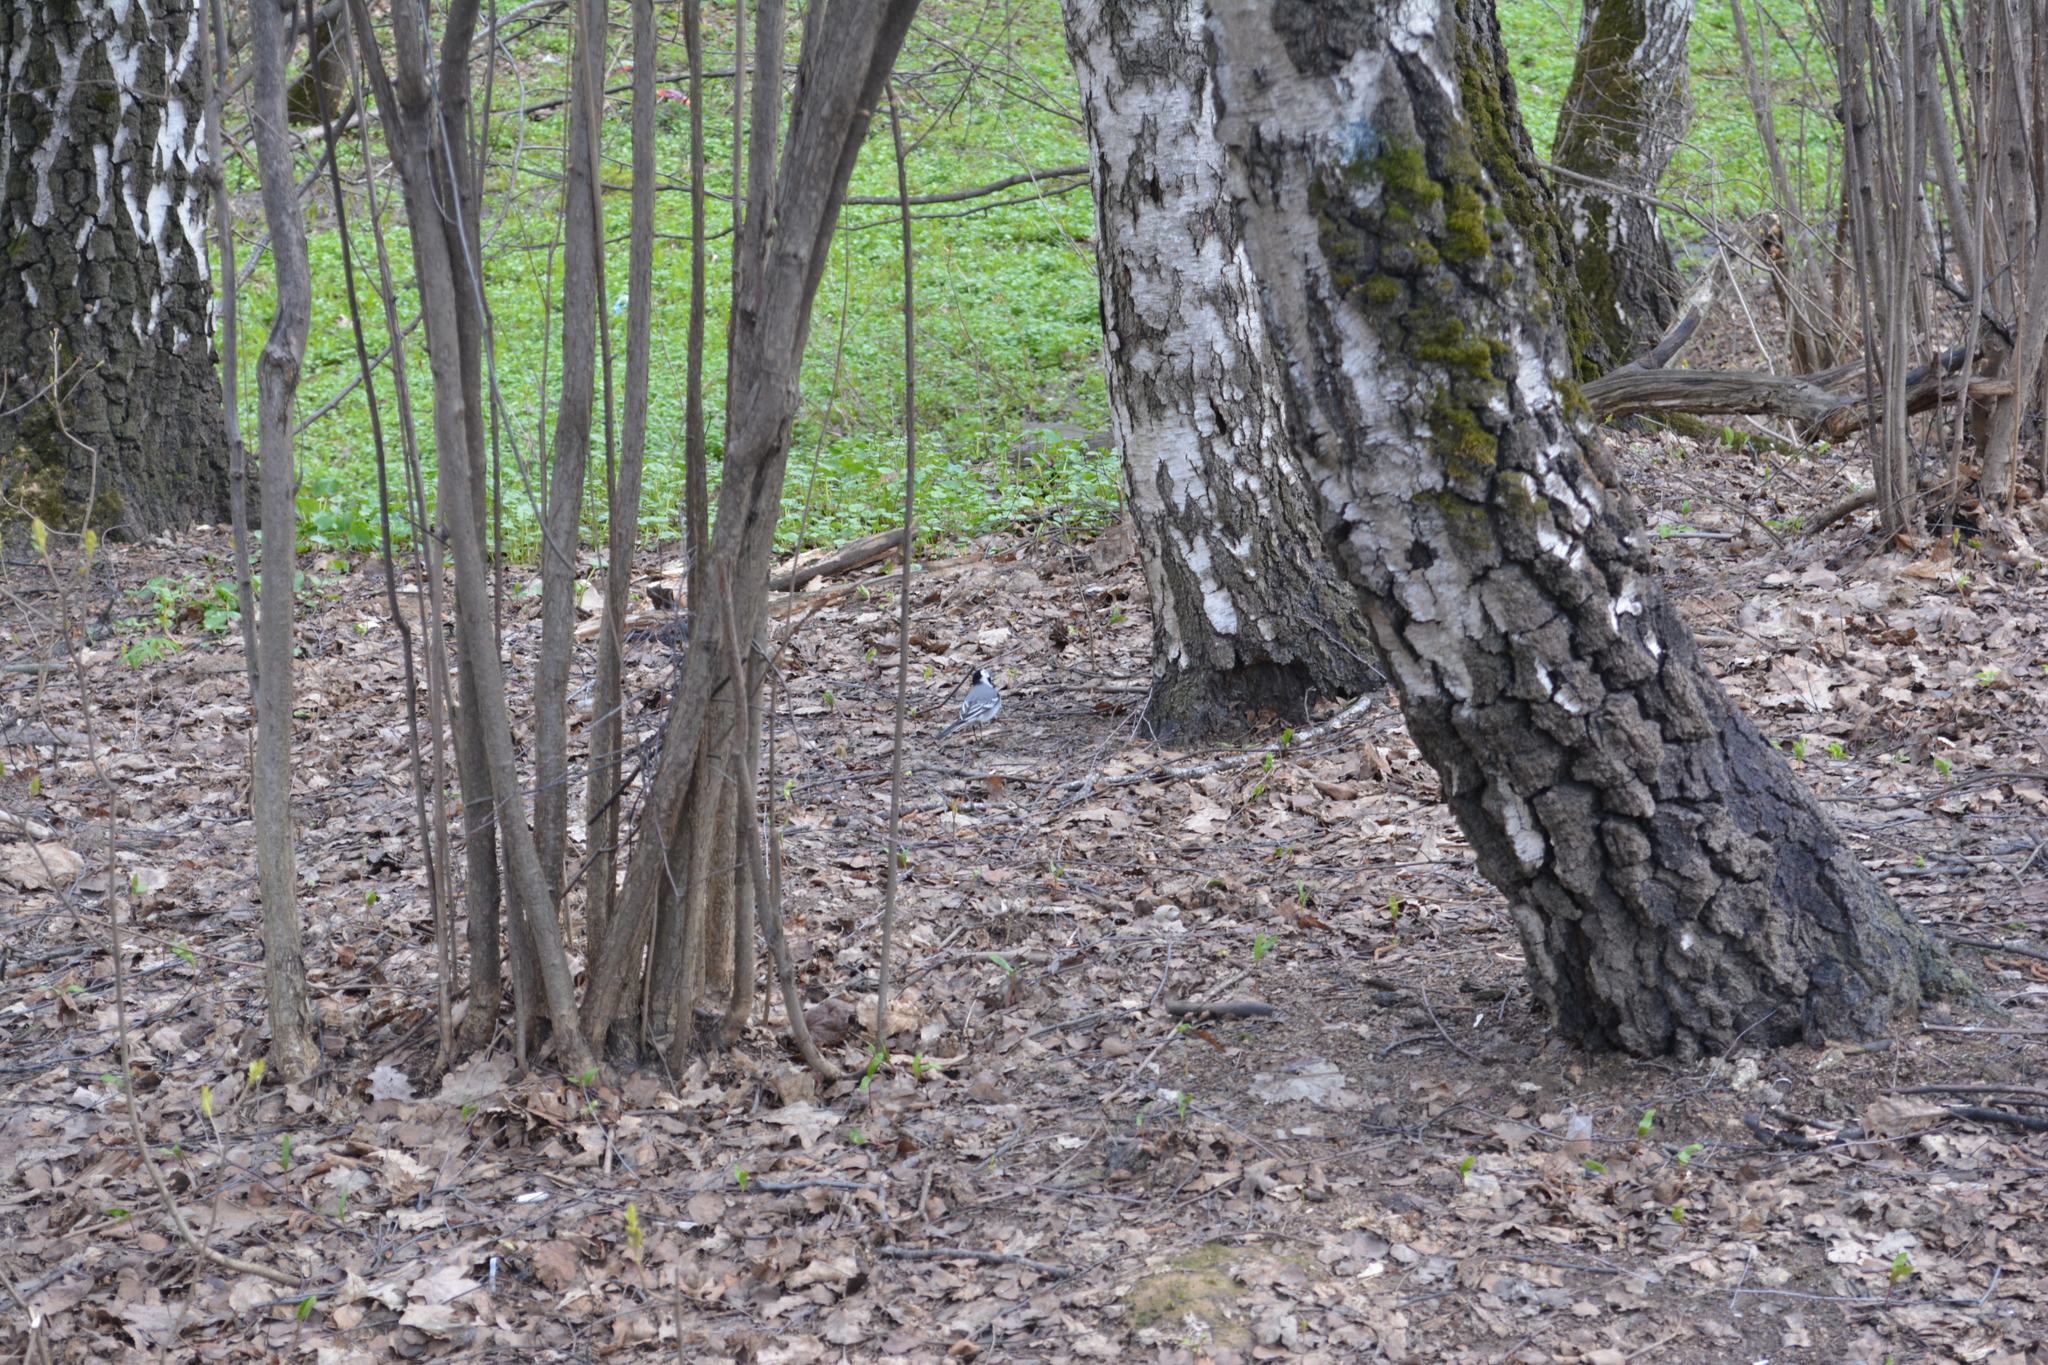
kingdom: Animalia
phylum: Chordata
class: Aves
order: Passeriformes
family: Motacillidae
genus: Motacilla
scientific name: Motacilla alba
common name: White wagtail
